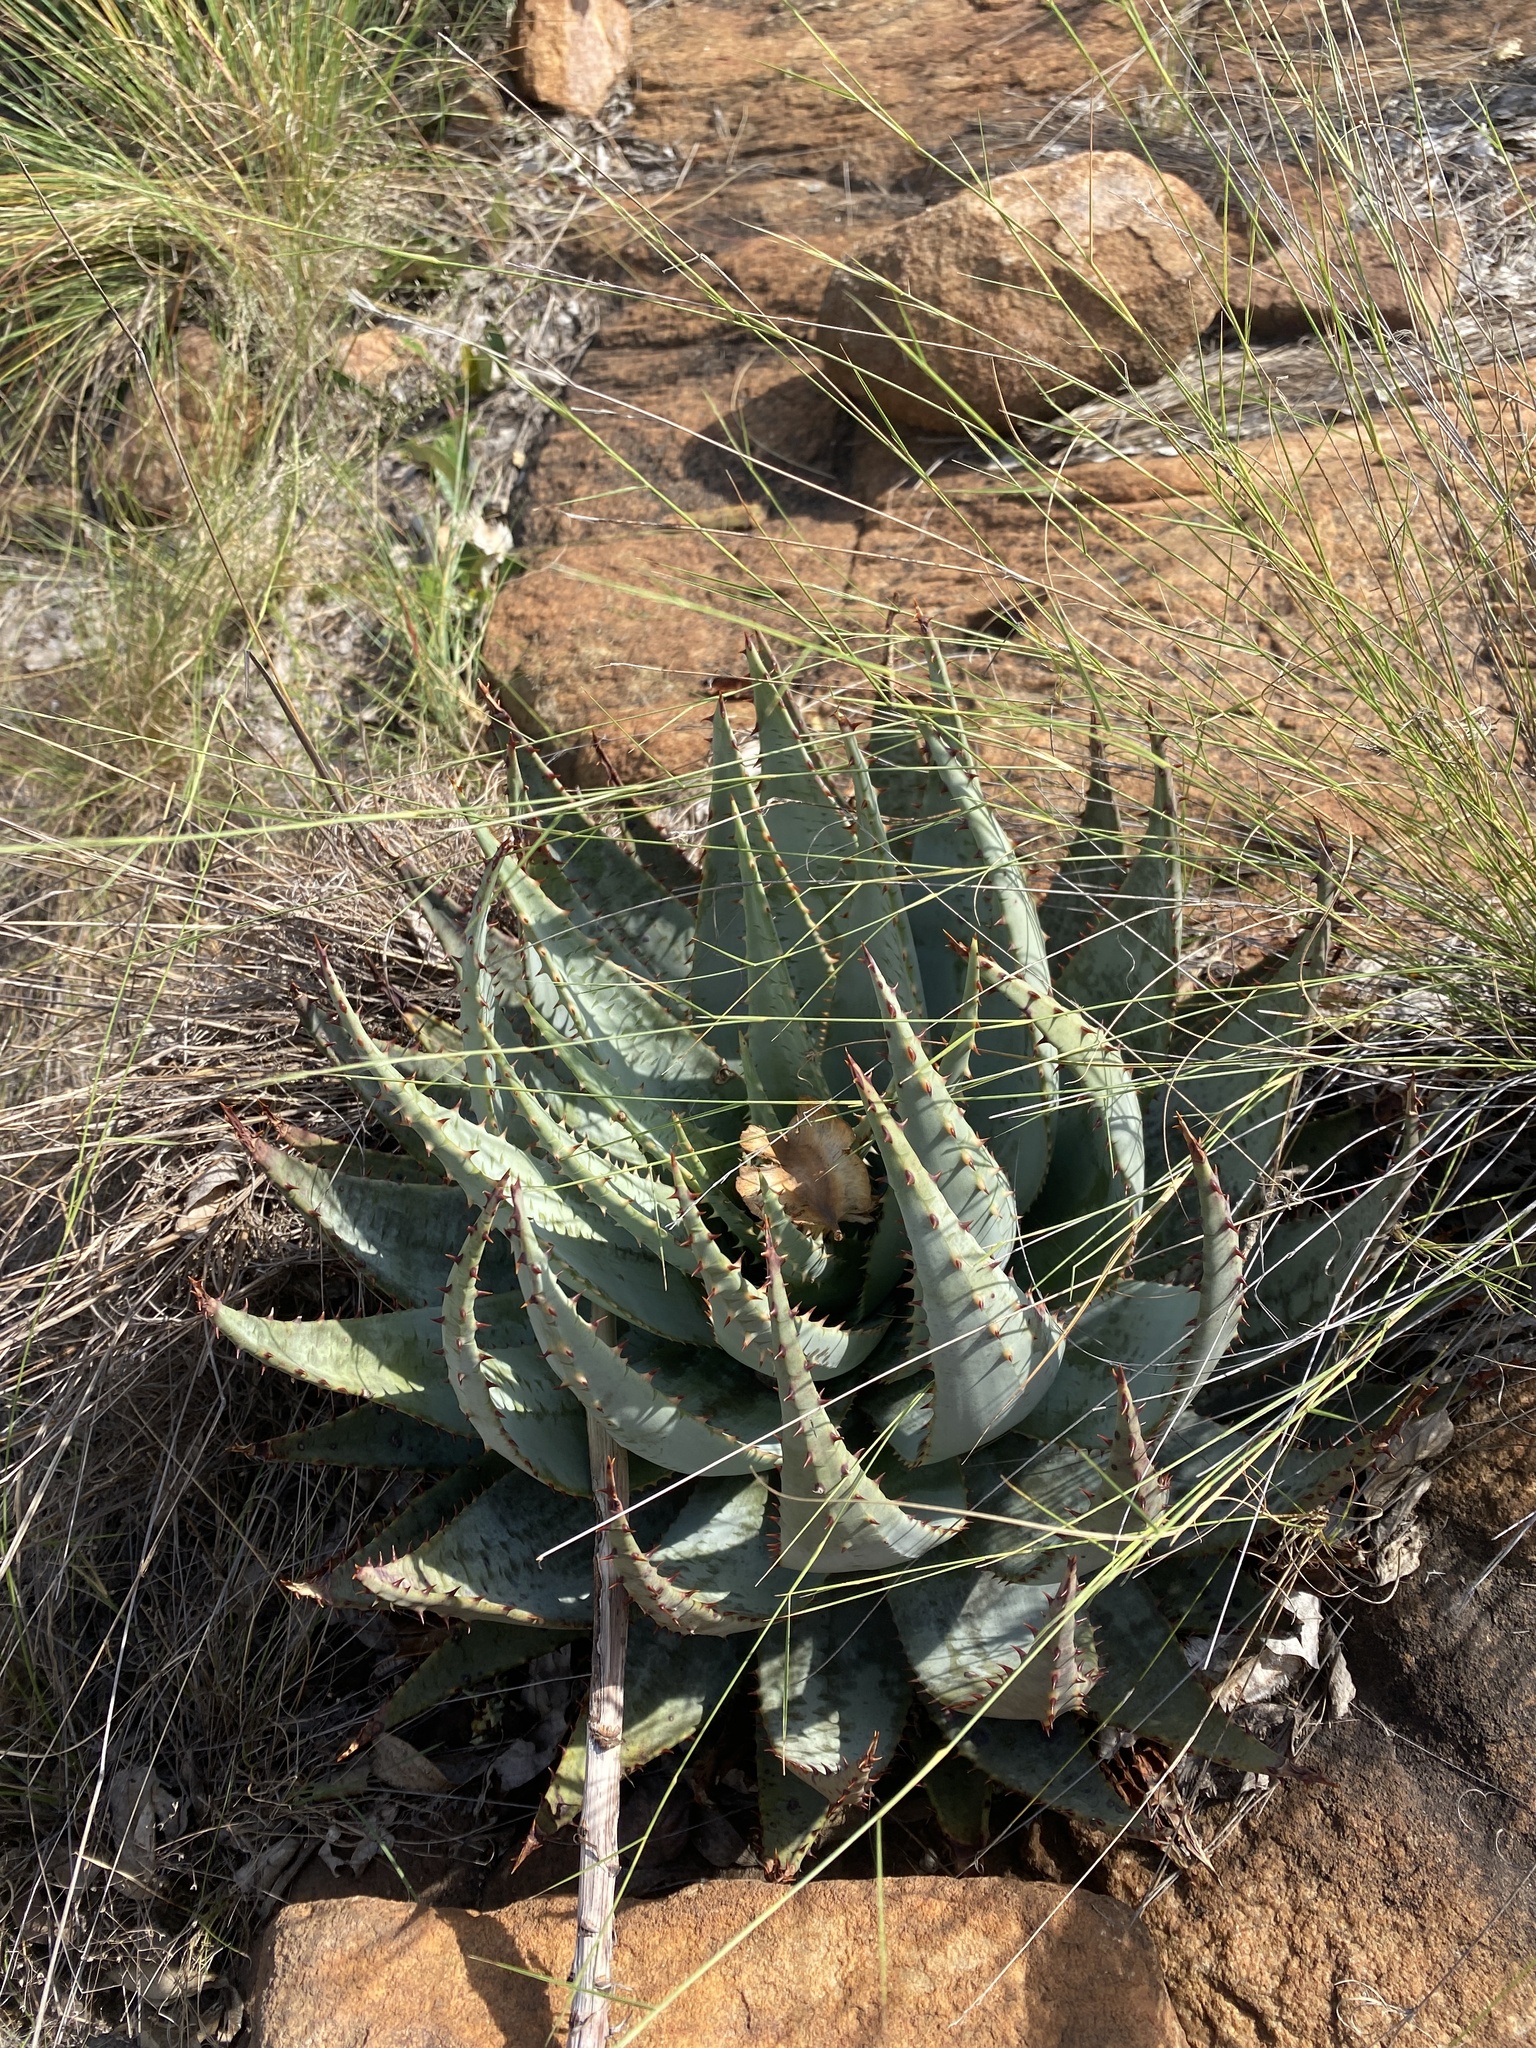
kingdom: Plantae
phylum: Tracheophyta
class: Liliopsida
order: Asparagales
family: Asphodelaceae
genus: Aloe
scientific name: Aloe peglerae
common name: Red-hot poker
